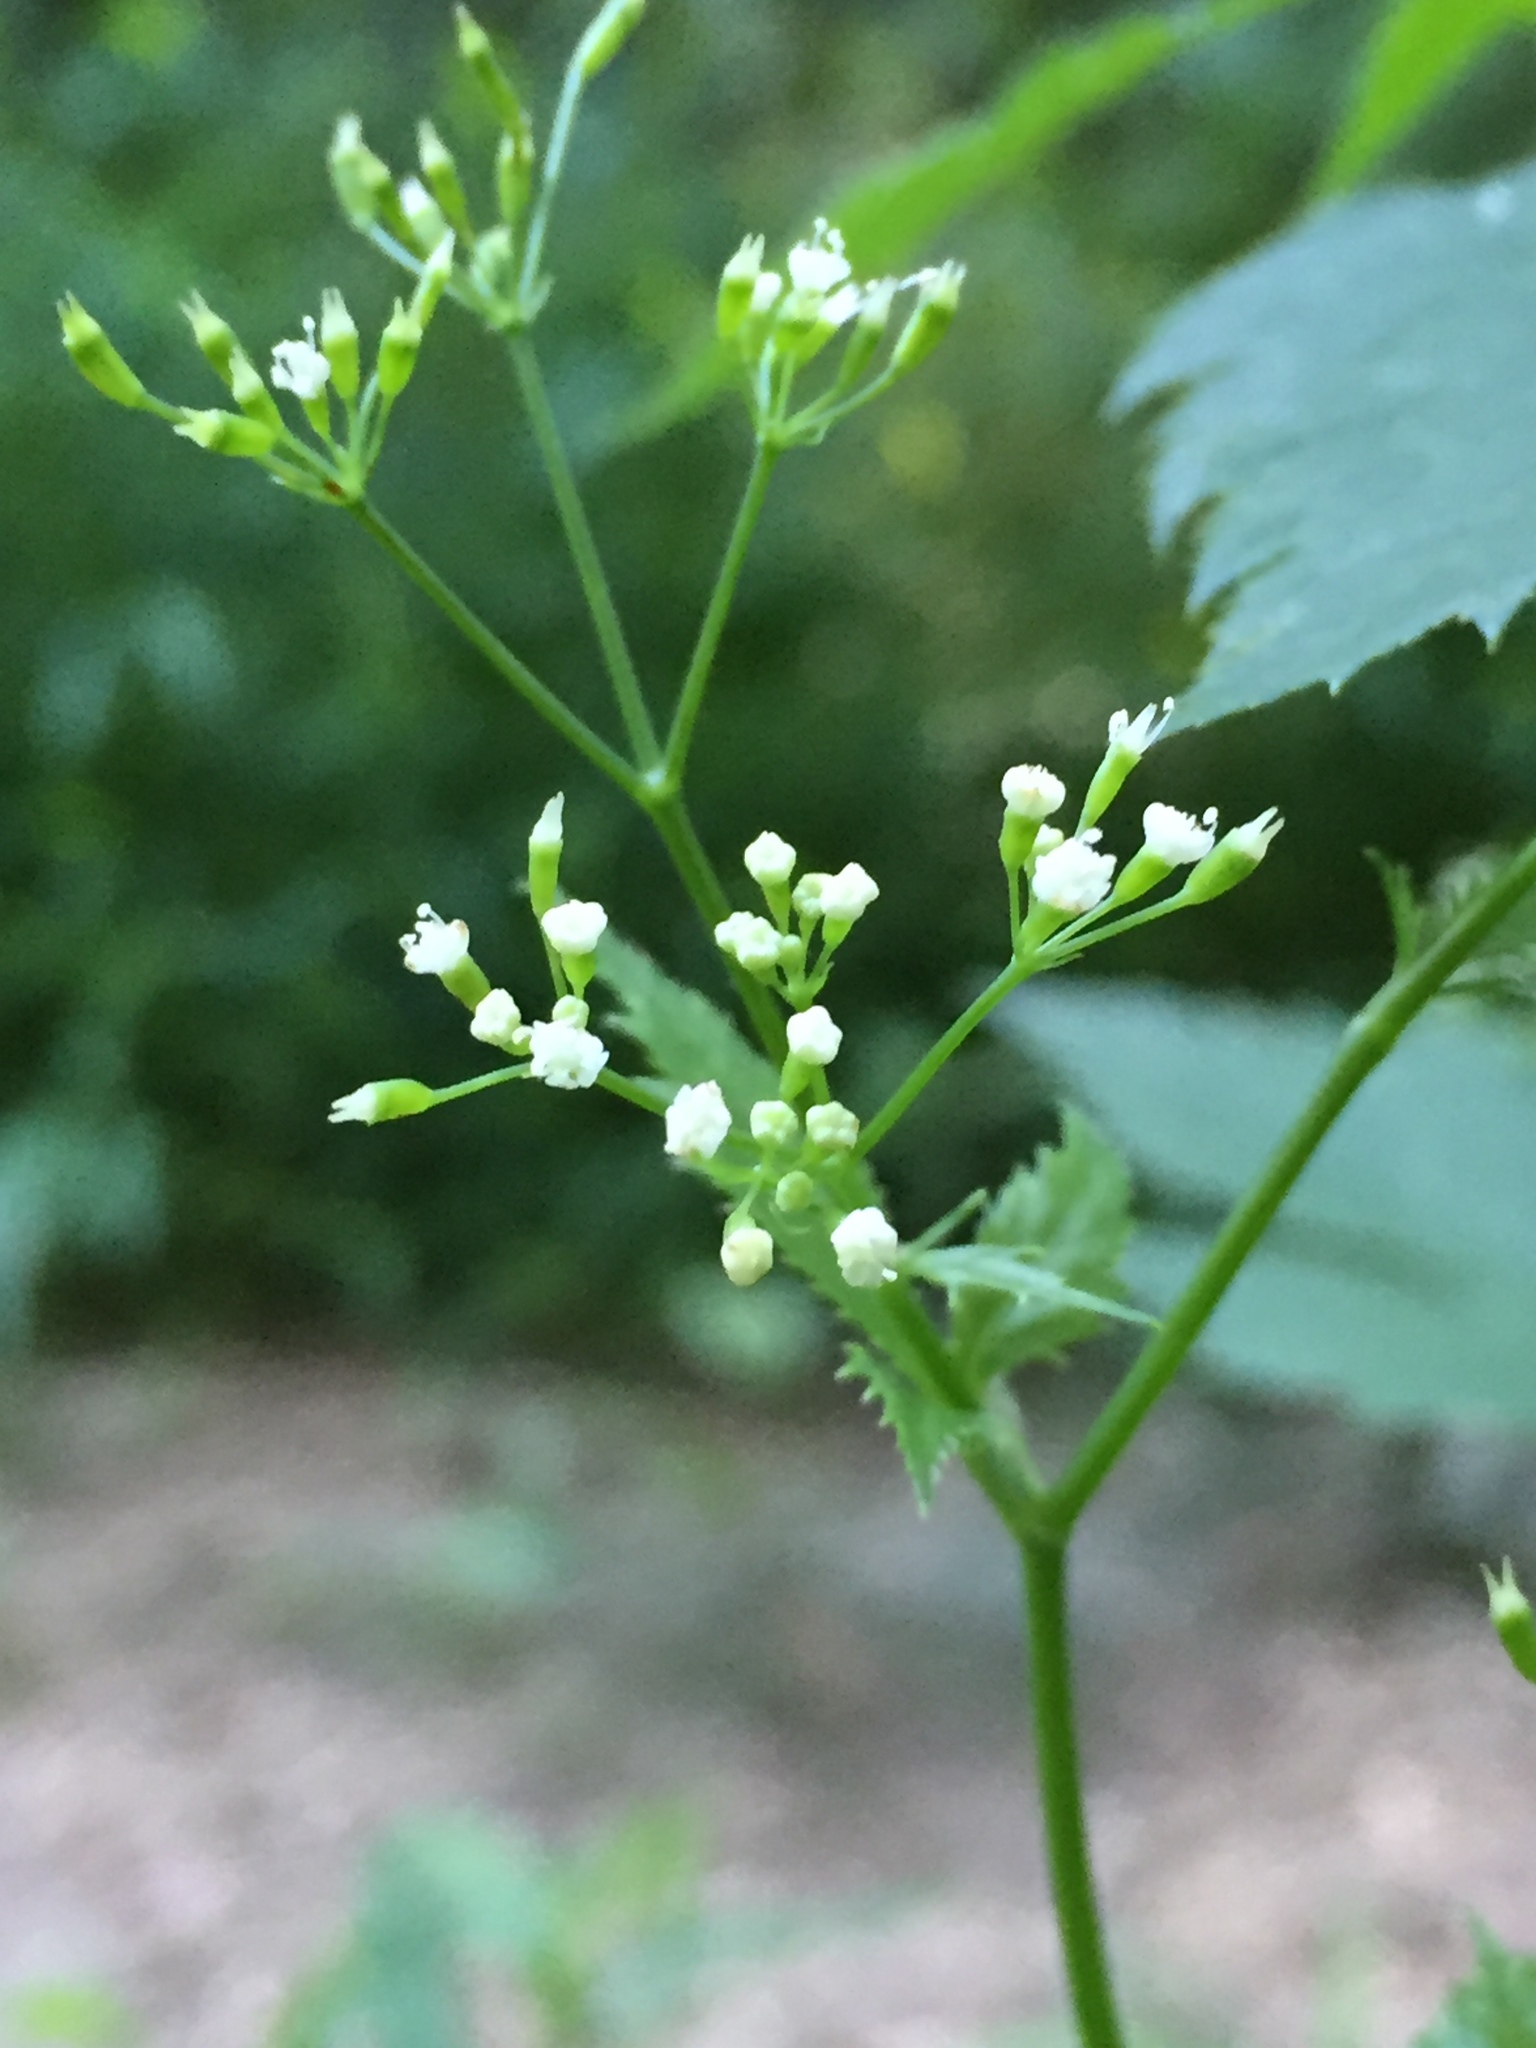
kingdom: Plantae
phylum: Tracheophyta
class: Magnoliopsida
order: Apiales
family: Apiaceae
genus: Cryptotaenia
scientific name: Cryptotaenia canadensis
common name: Honewort
